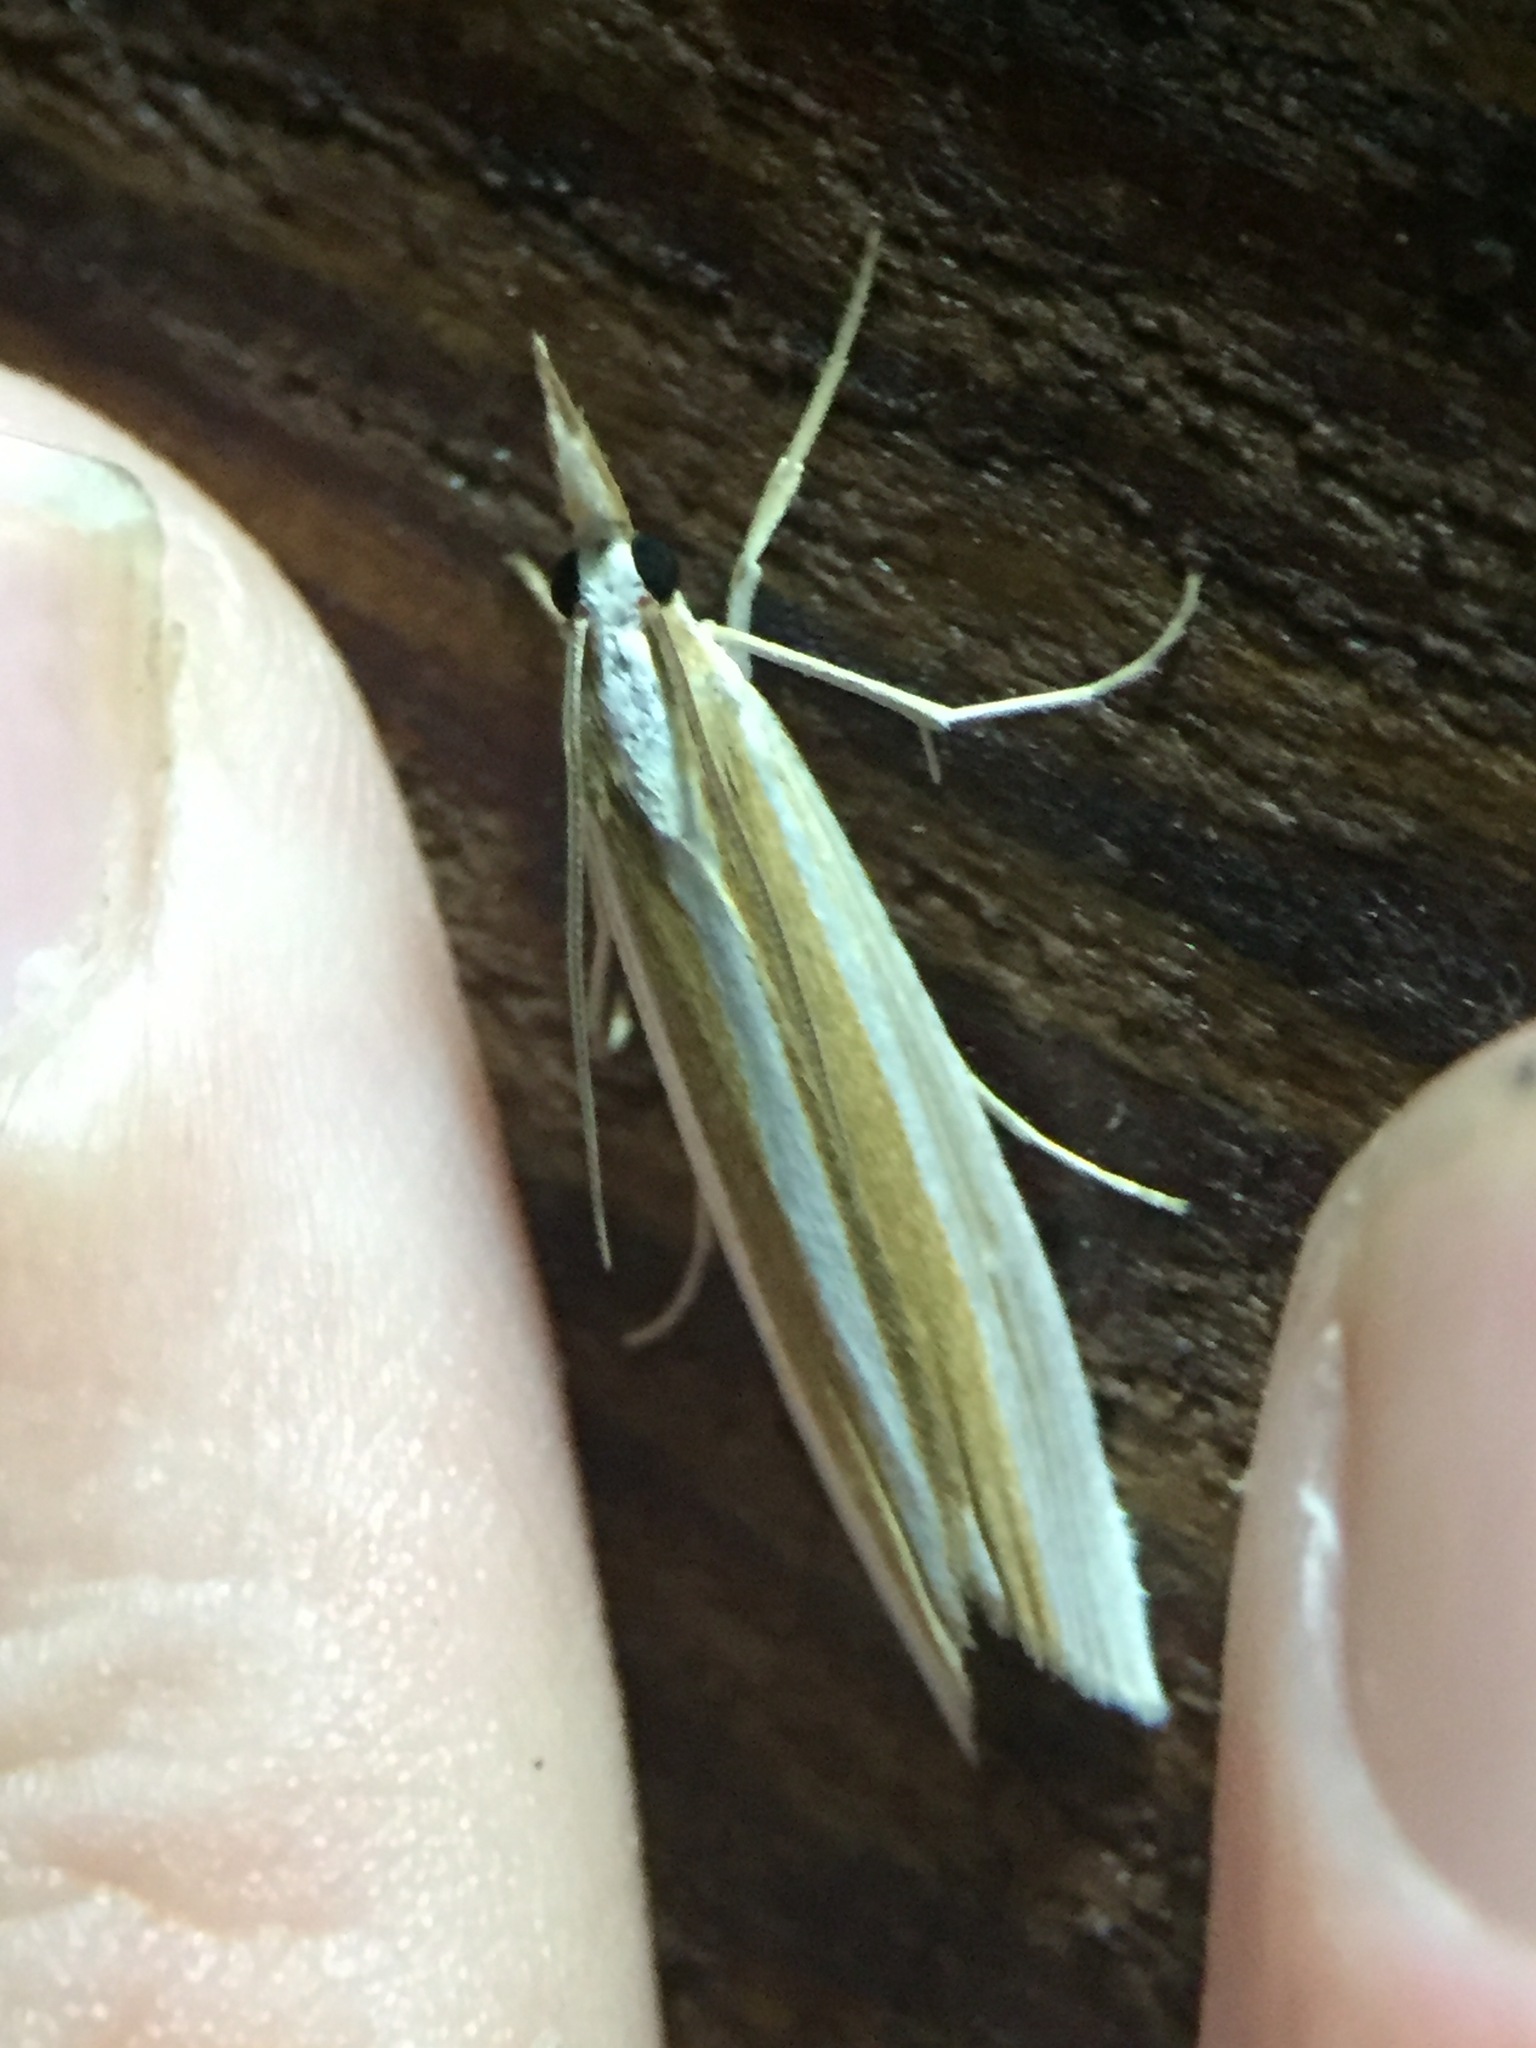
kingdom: Animalia
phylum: Arthropoda
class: Insecta
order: Lepidoptera
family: Crambidae
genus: Orocrambus
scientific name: Orocrambus angustipennis
